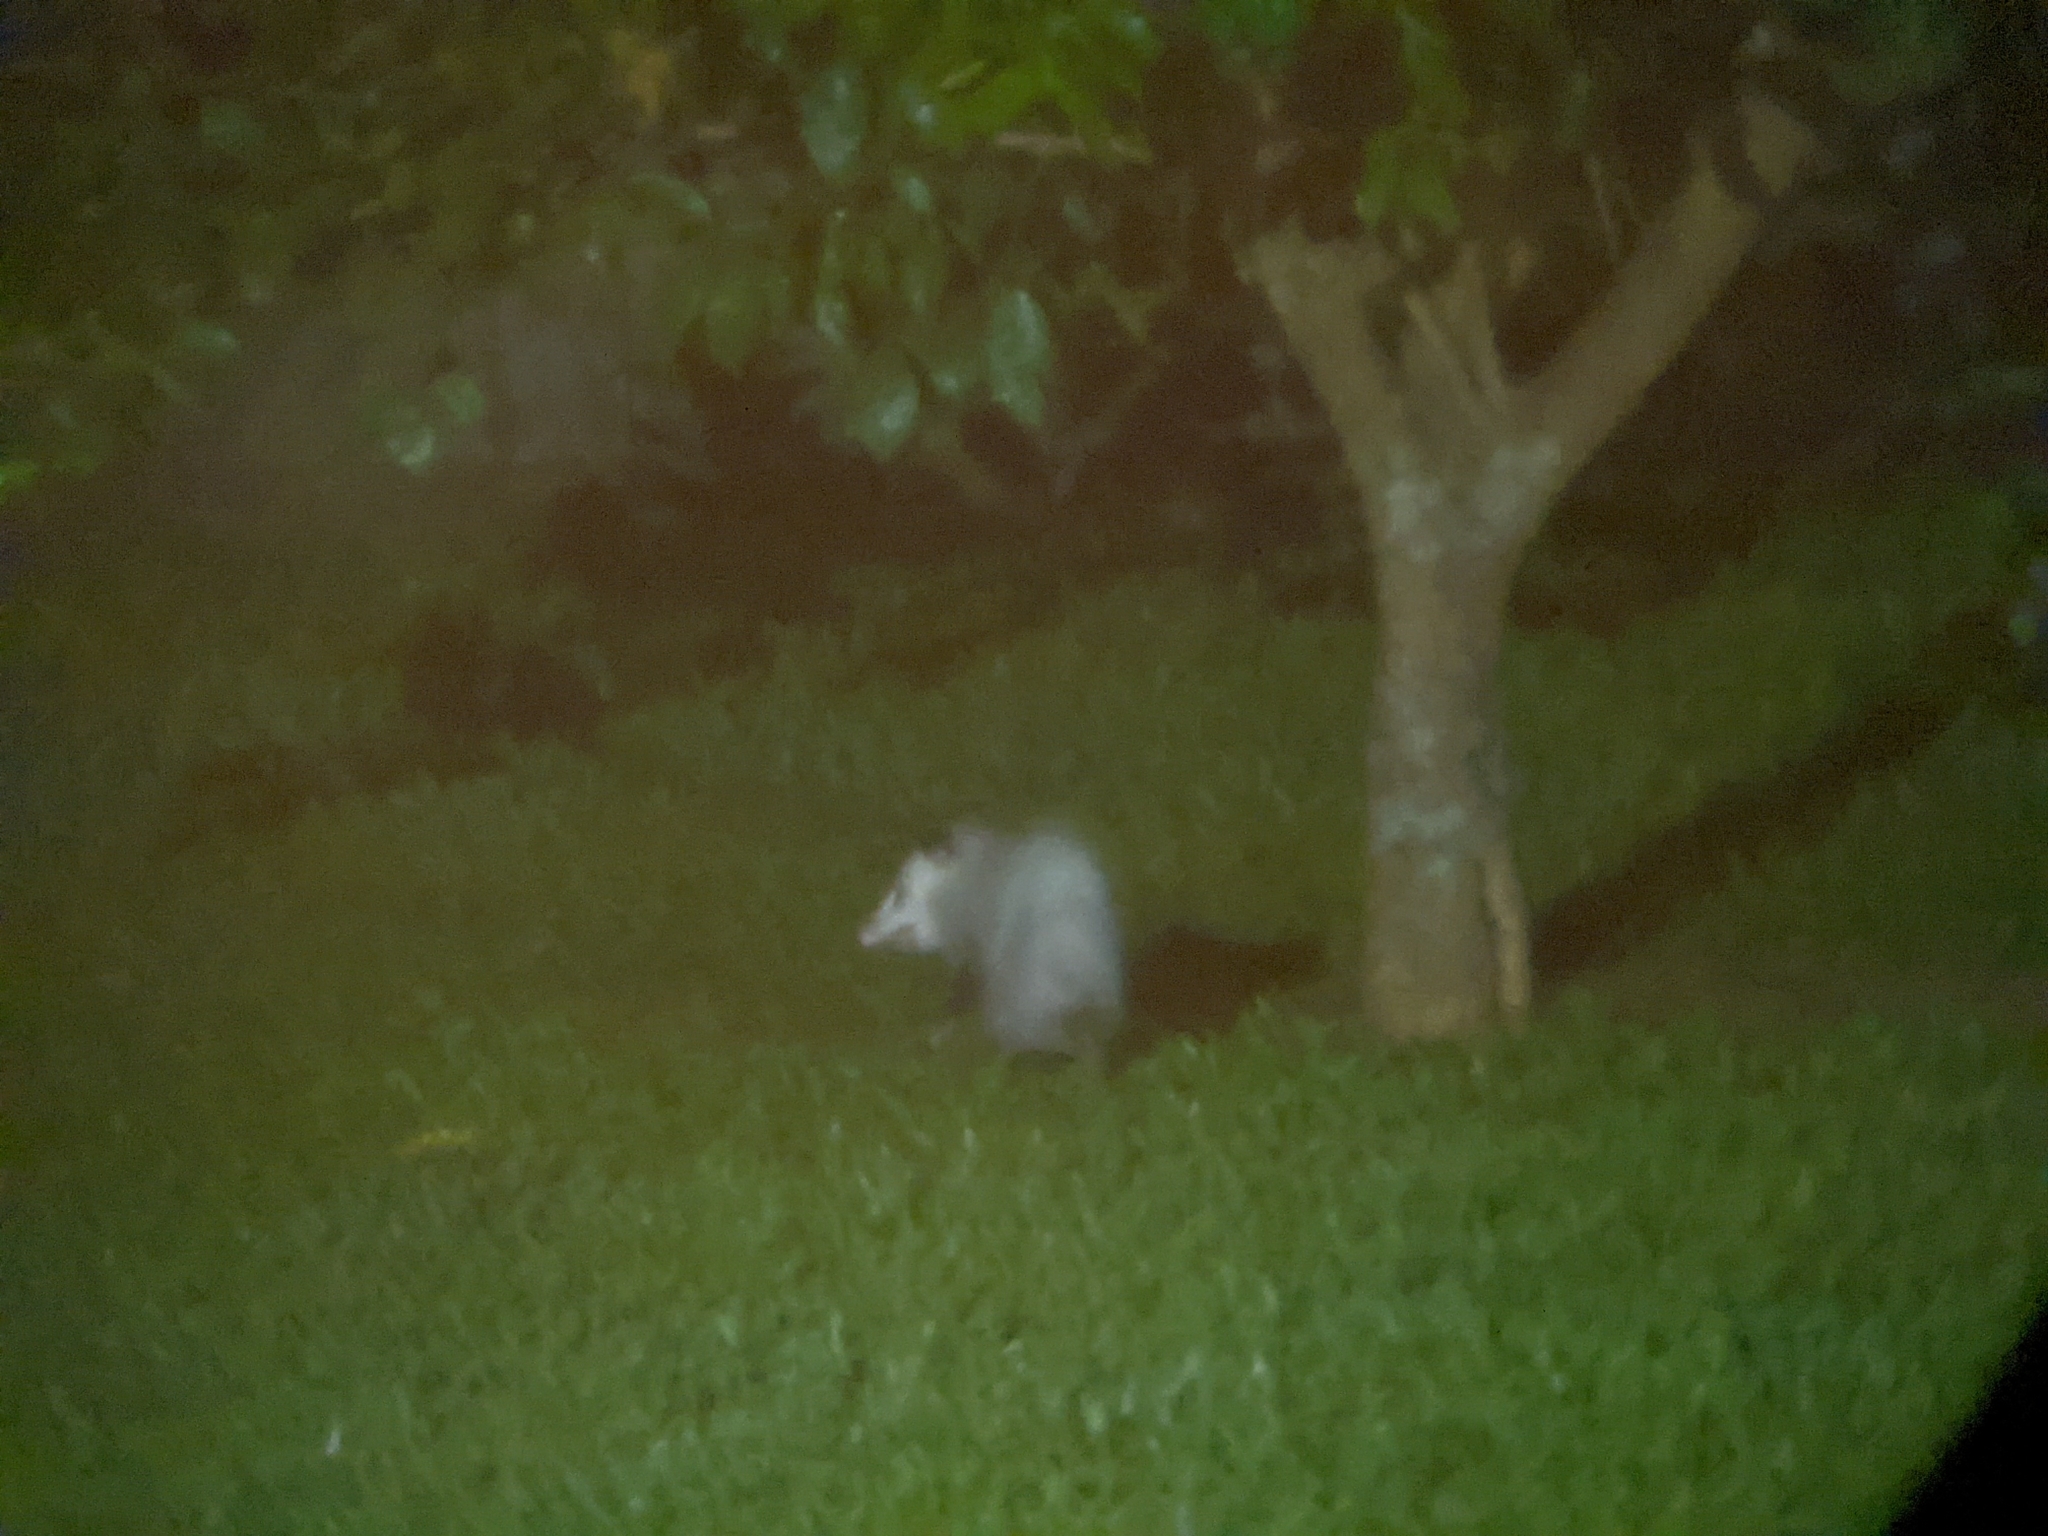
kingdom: Animalia
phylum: Chordata
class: Mammalia
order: Didelphimorphia
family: Didelphidae
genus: Didelphis
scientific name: Didelphis virginiana
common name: Virginia opossum
